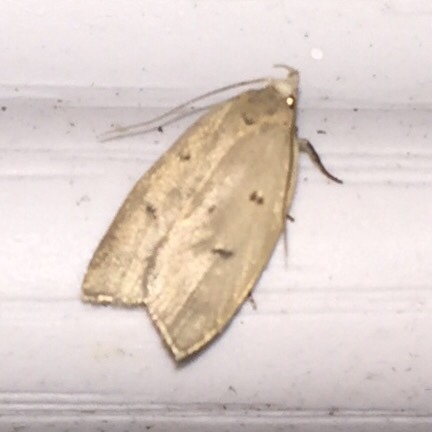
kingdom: Animalia
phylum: Arthropoda
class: Insecta
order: Lepidoptera
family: Peleopodidae
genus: Machimia
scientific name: Machimia tentoriferella
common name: Gold-striped leaftier moth
